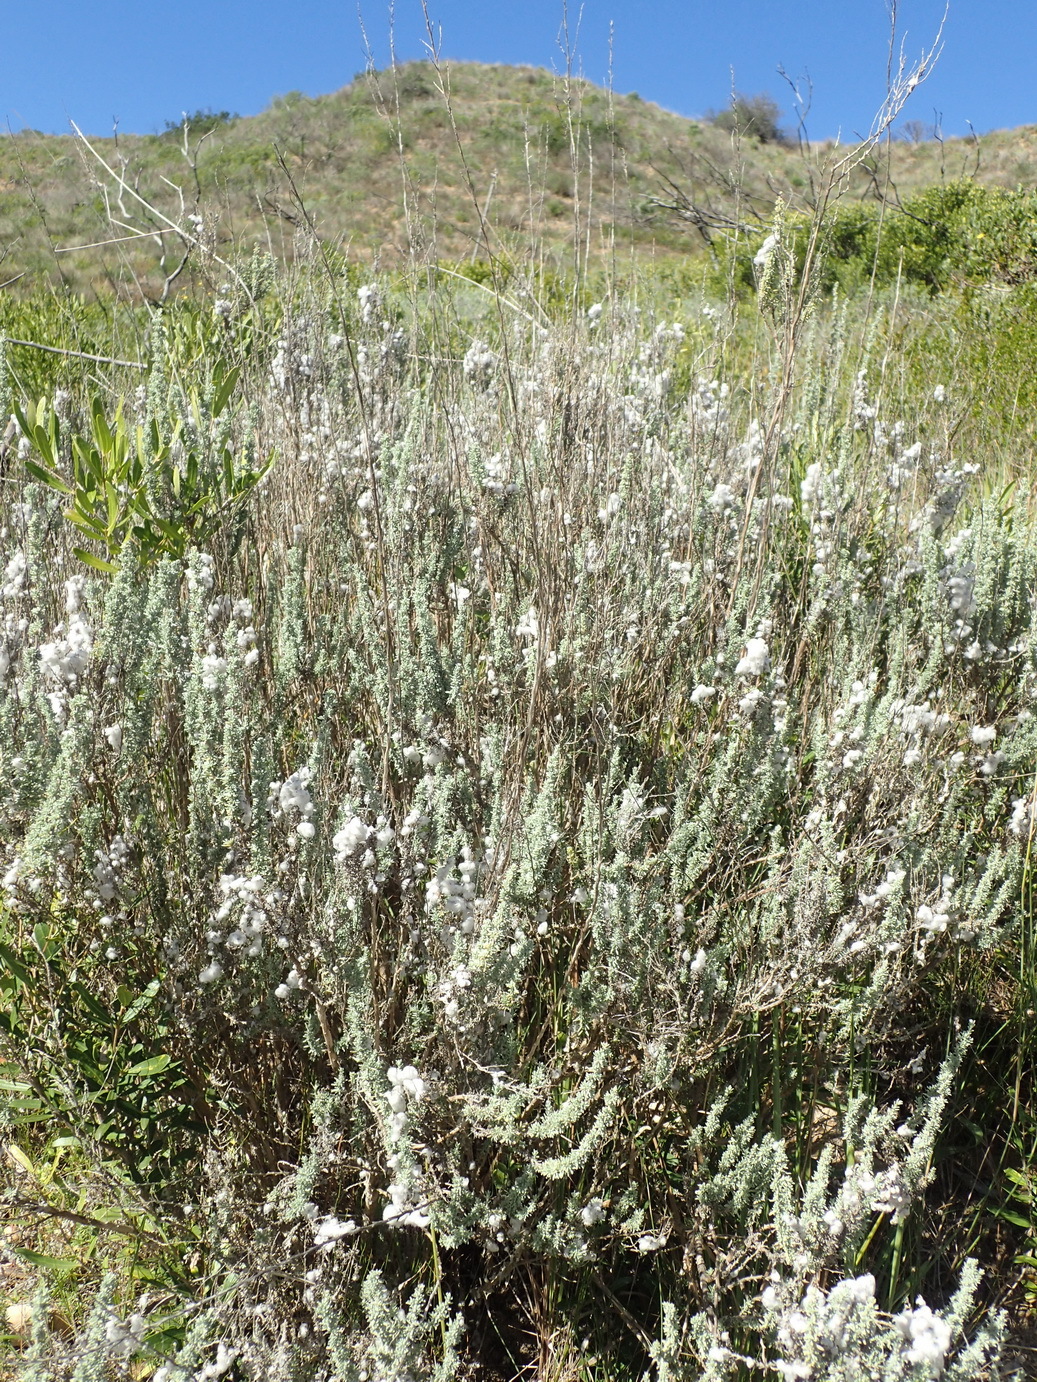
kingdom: Plantae
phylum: Tracheophyta
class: Magnoliopsida
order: Asterales
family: Asteraceae
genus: Eriocephalus
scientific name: Eriocephalus racemosus
